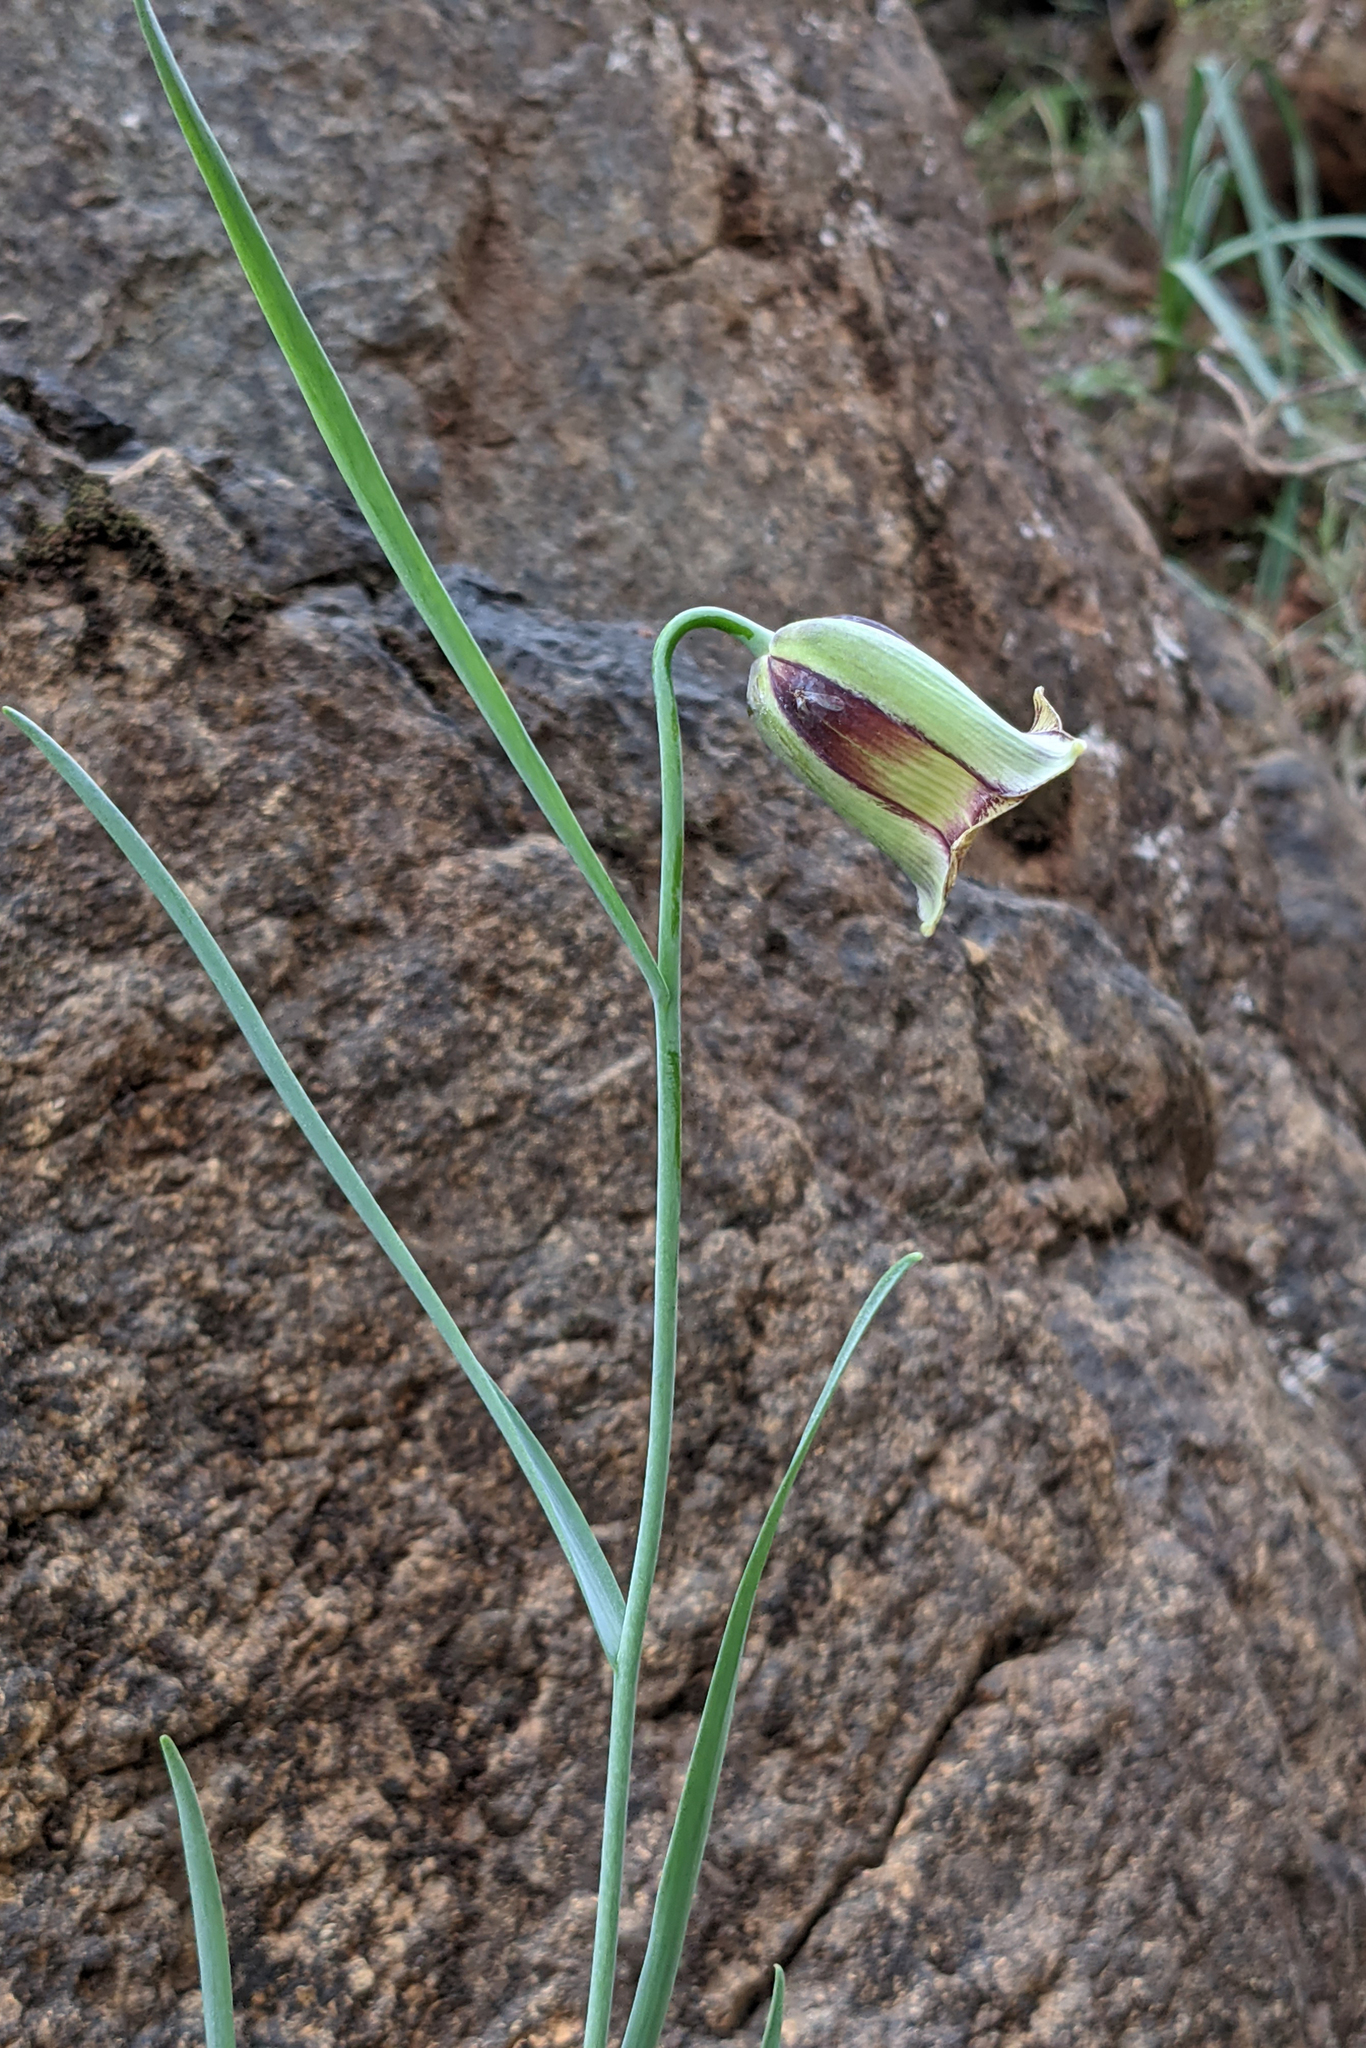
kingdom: Plantae
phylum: Tracheophyta
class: Liliopsida
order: Liliales
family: Liliaceae
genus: Fritillaria
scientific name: Fritillaria acmopetala
